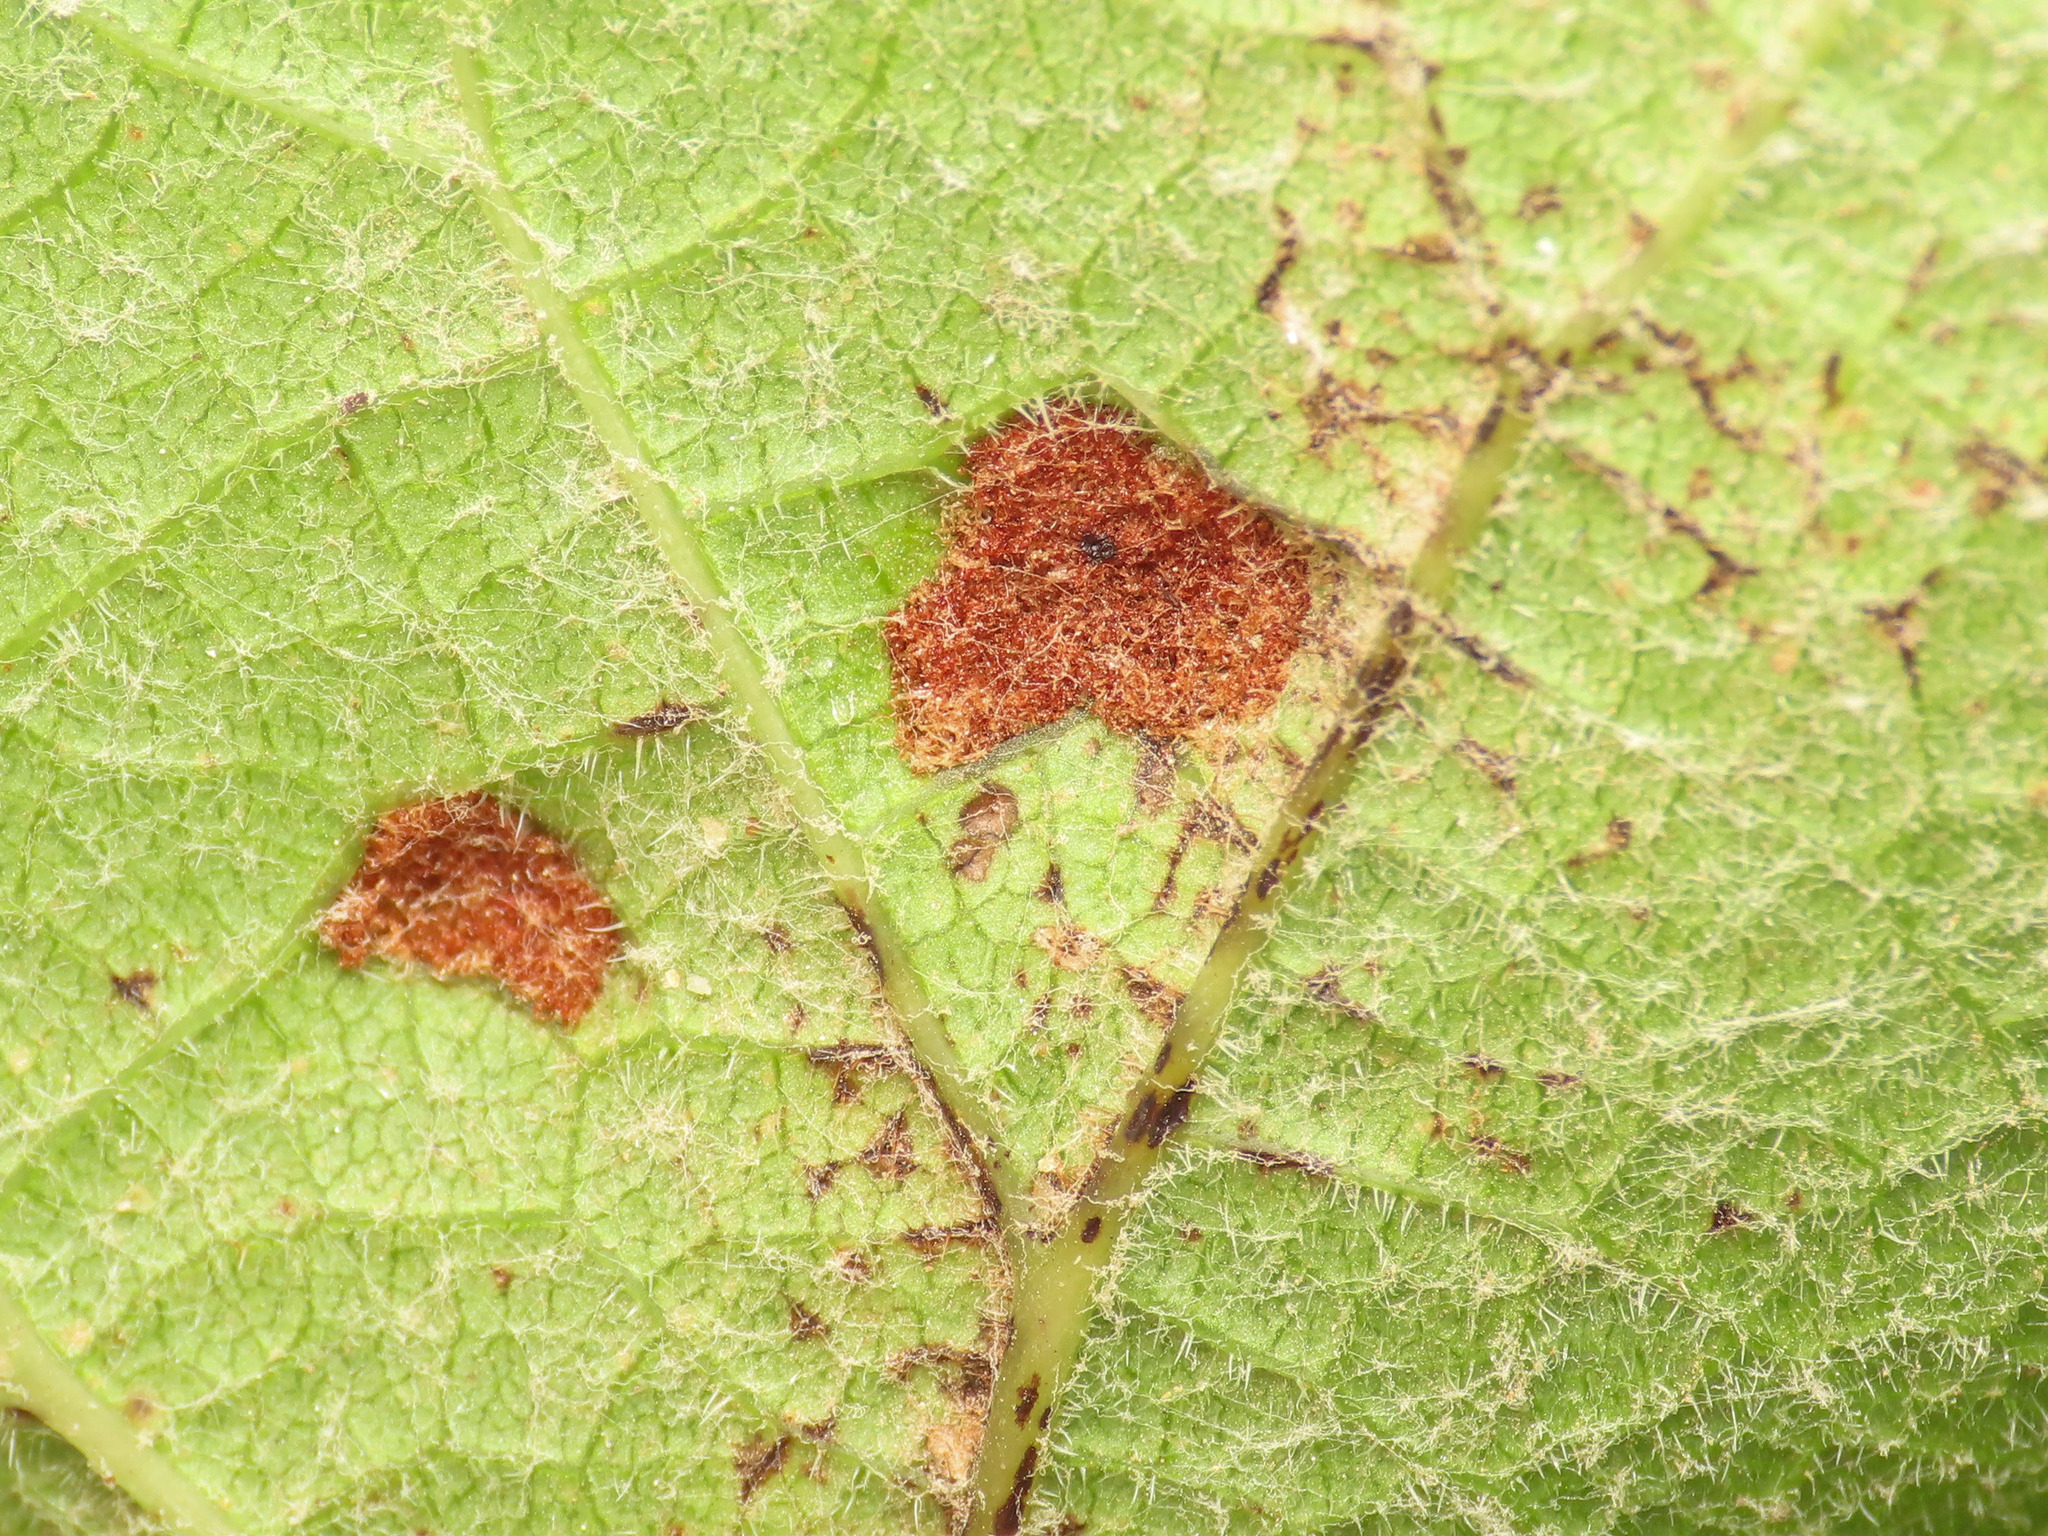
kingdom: Animalia
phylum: Arthropoda
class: Arachnida
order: Trombidiformes
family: Eriophyidae
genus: Colomerus
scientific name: Colomerus vitis
